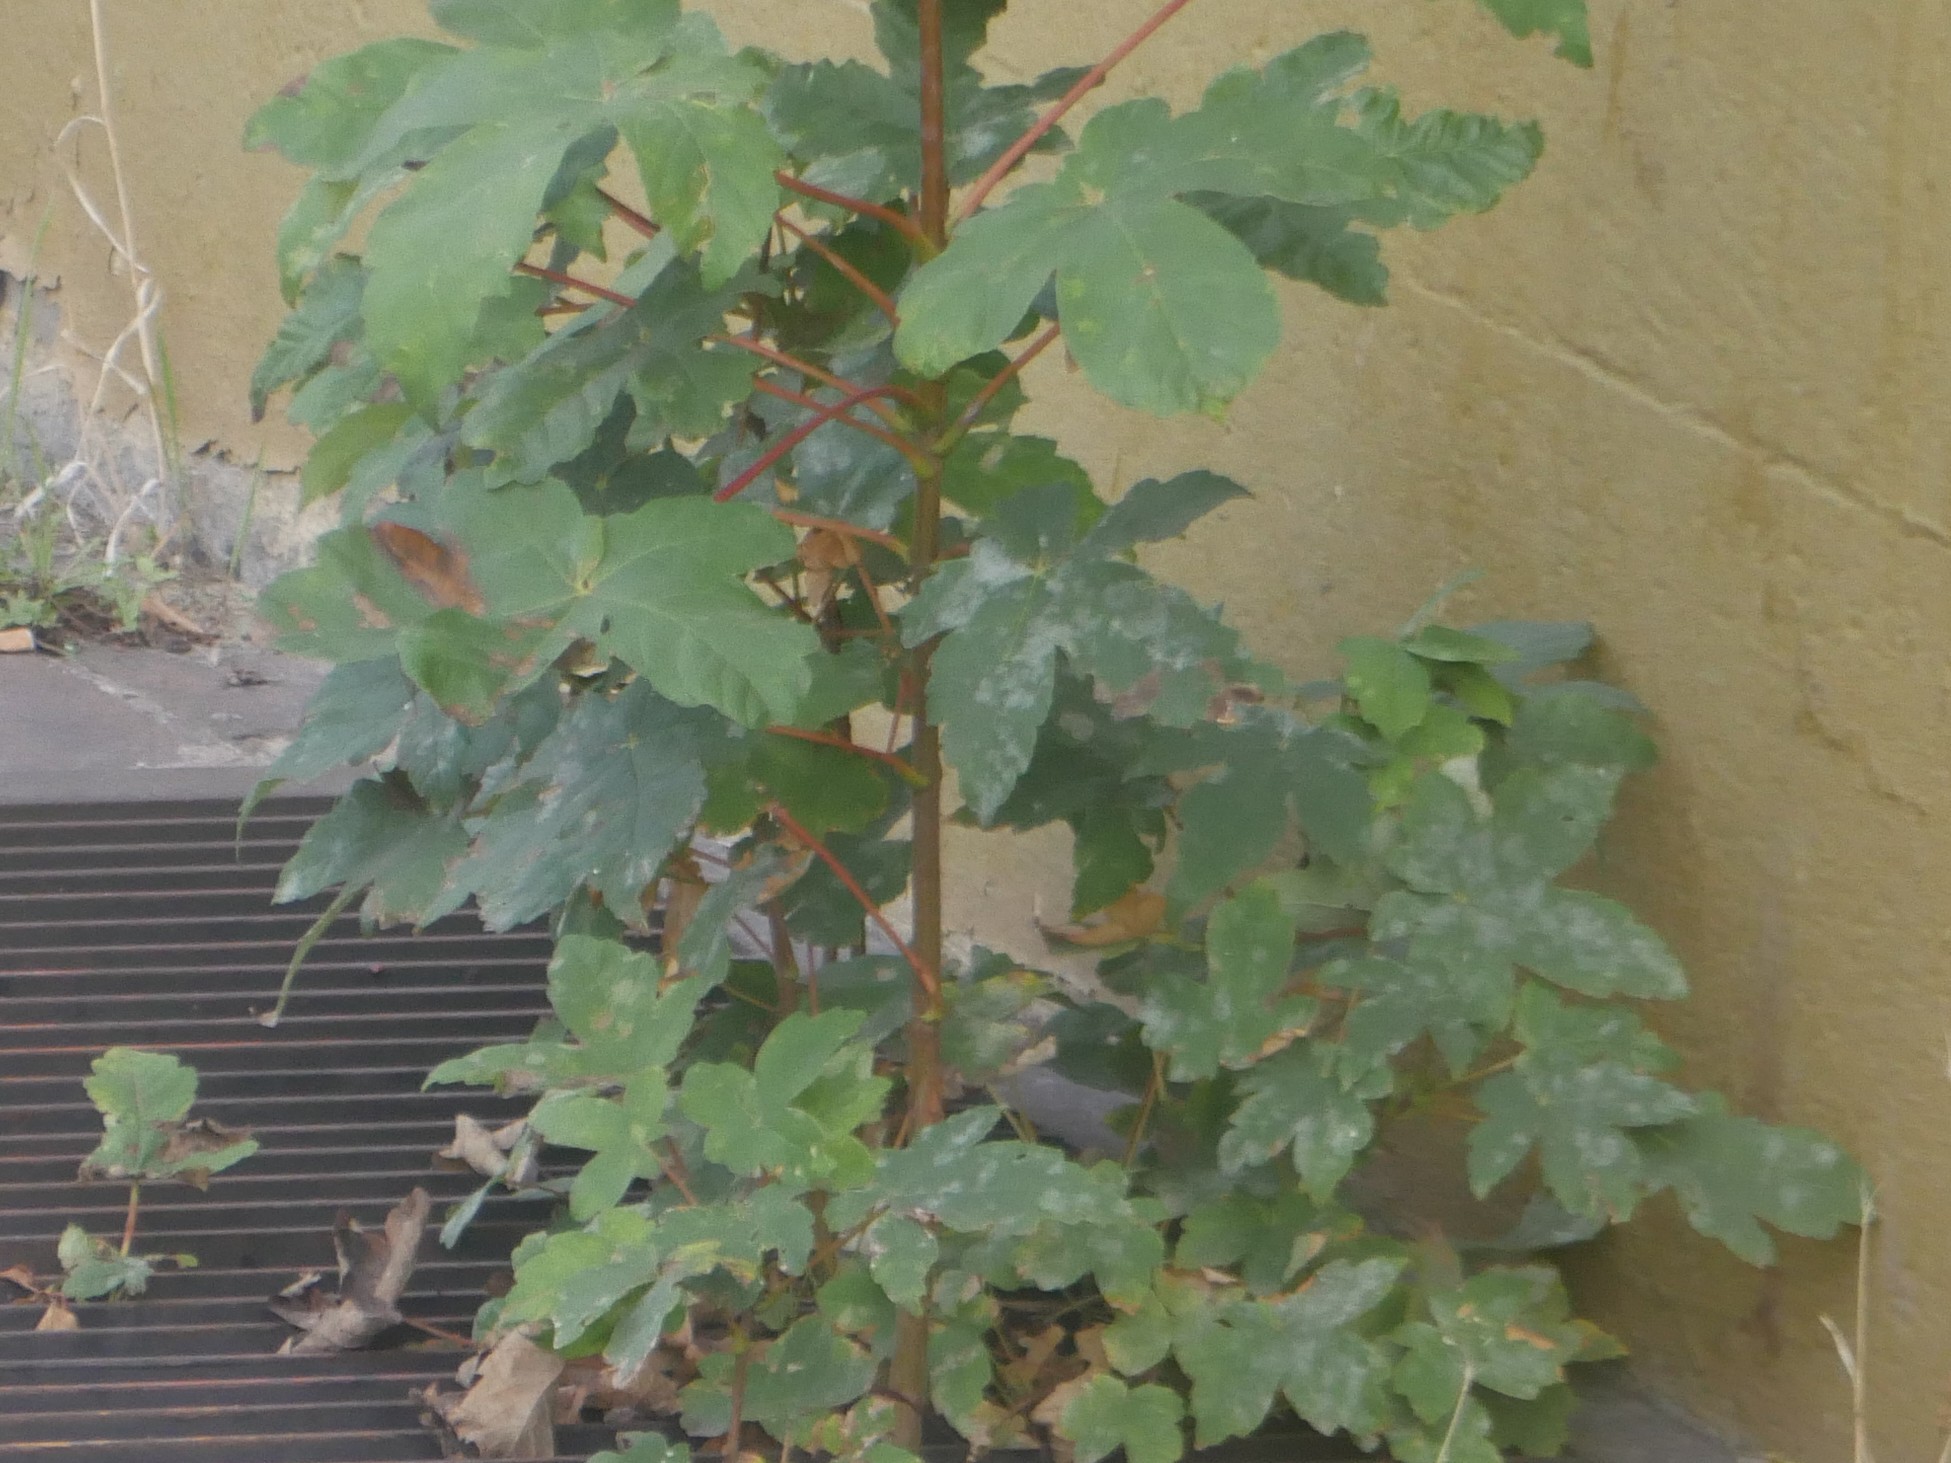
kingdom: Fungi
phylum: Ascomycota
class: Leotiomycetes
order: Helotiales
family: Erysiphaceae
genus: Sawadaea
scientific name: Sawadaea bicornis
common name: Maple mildew
